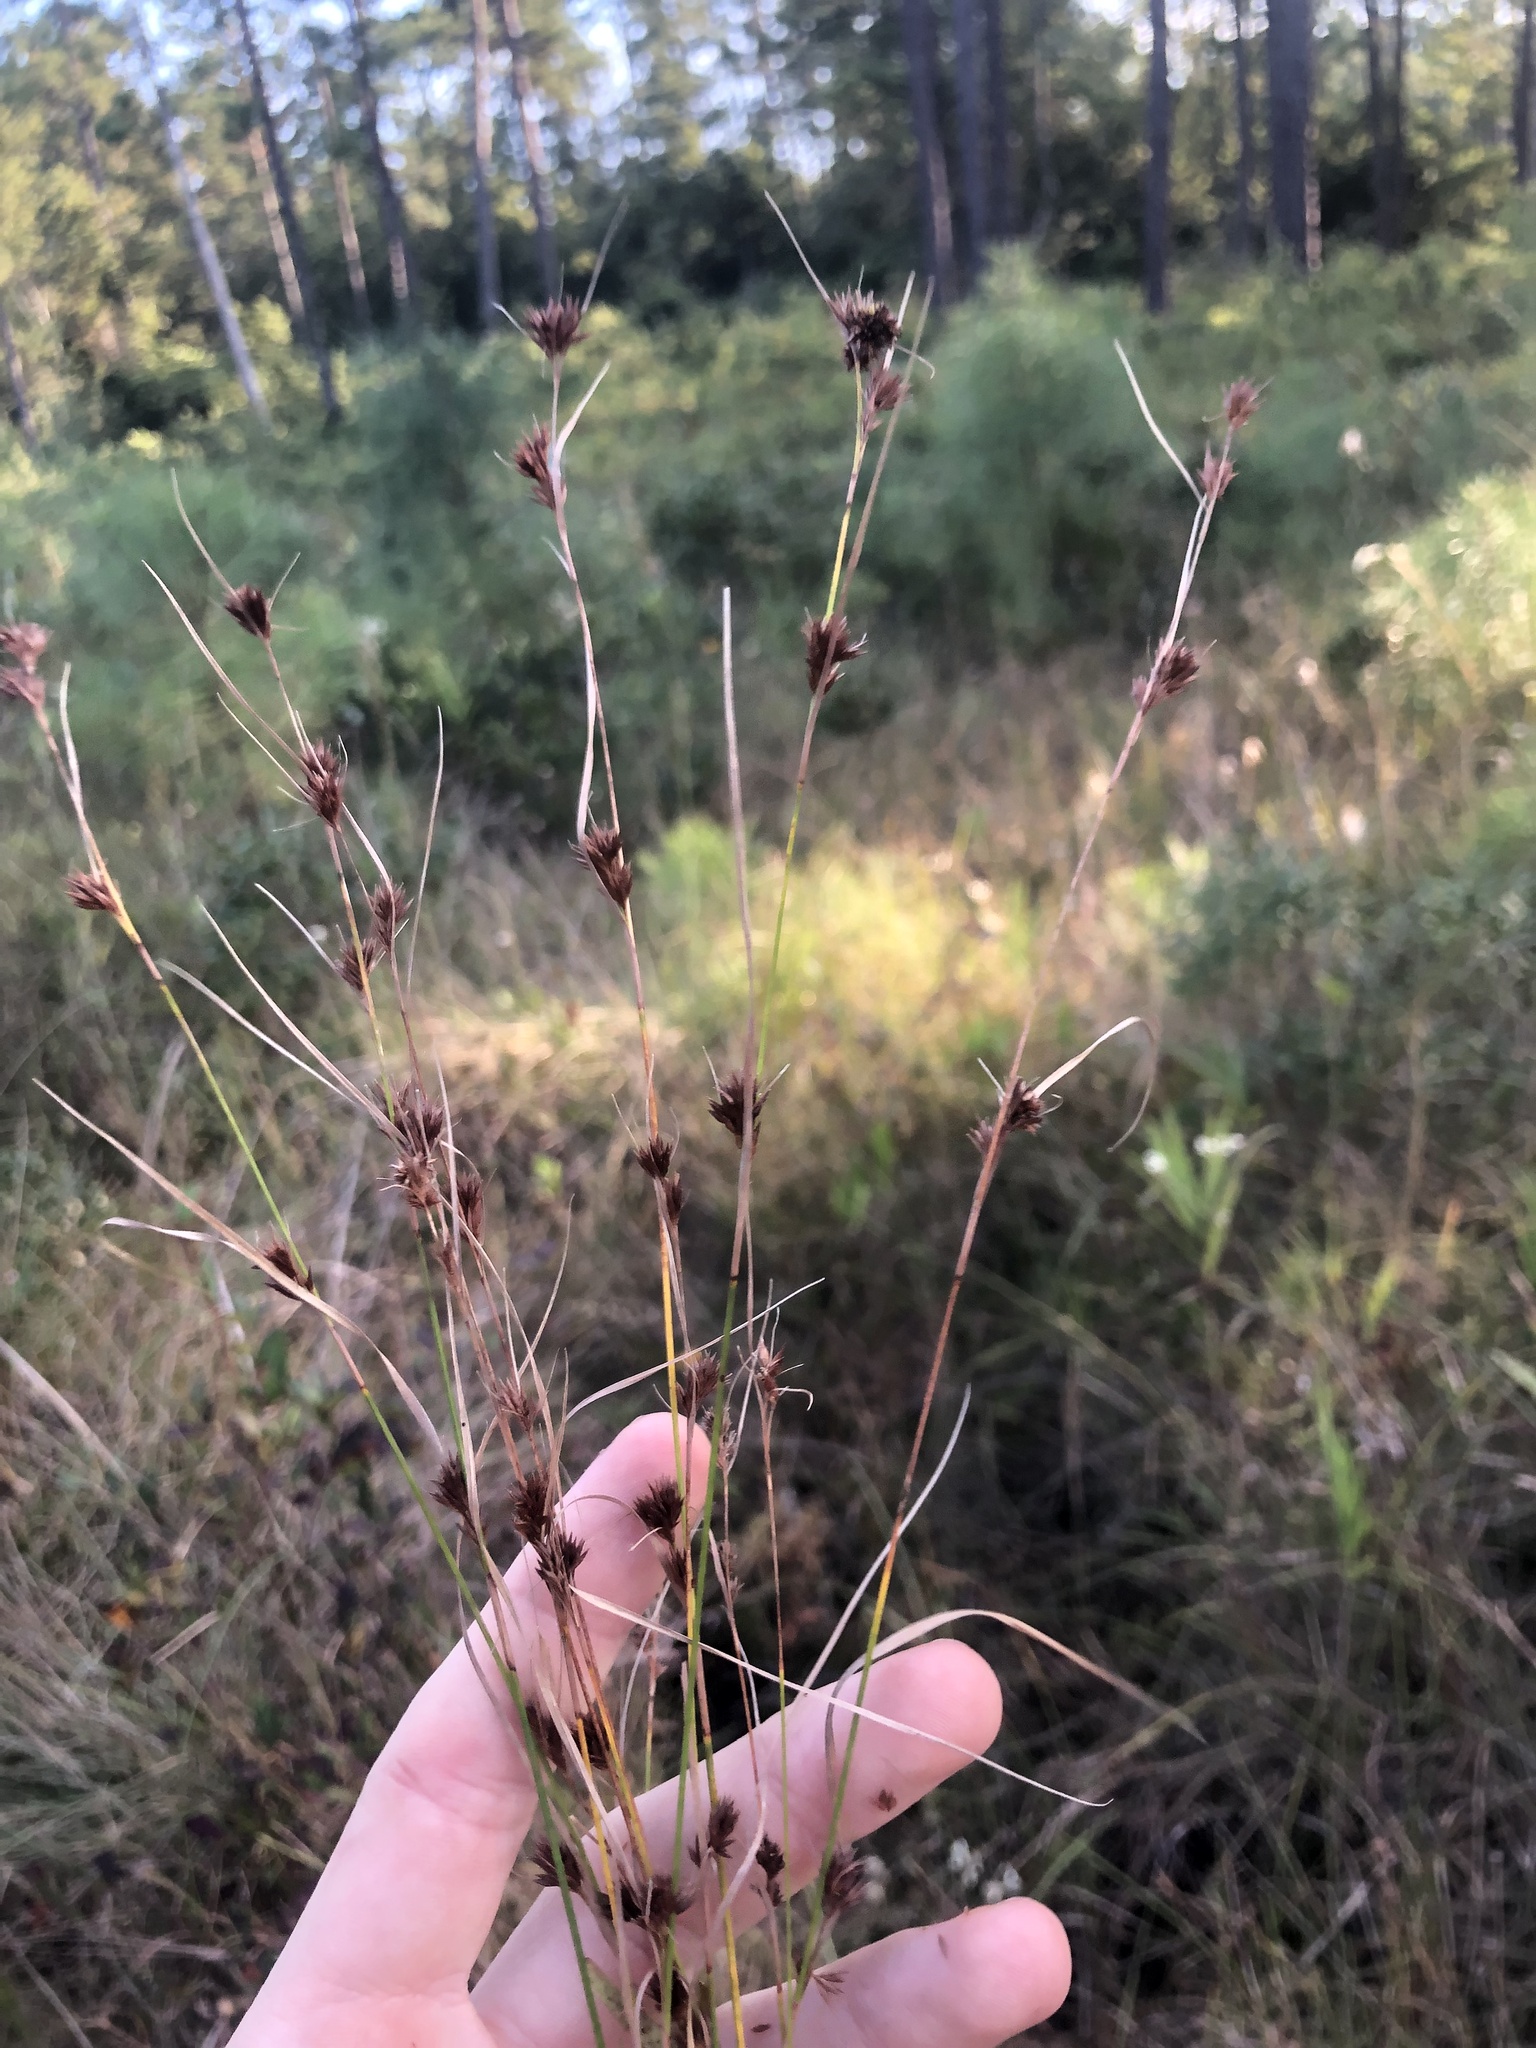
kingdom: Plantae
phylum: Tracheophyta
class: Liliopsida
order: Poales
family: Cyperaceae
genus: Rhynchospora
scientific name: Rhynchospora fascicularis
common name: Fascicled beak sedge
